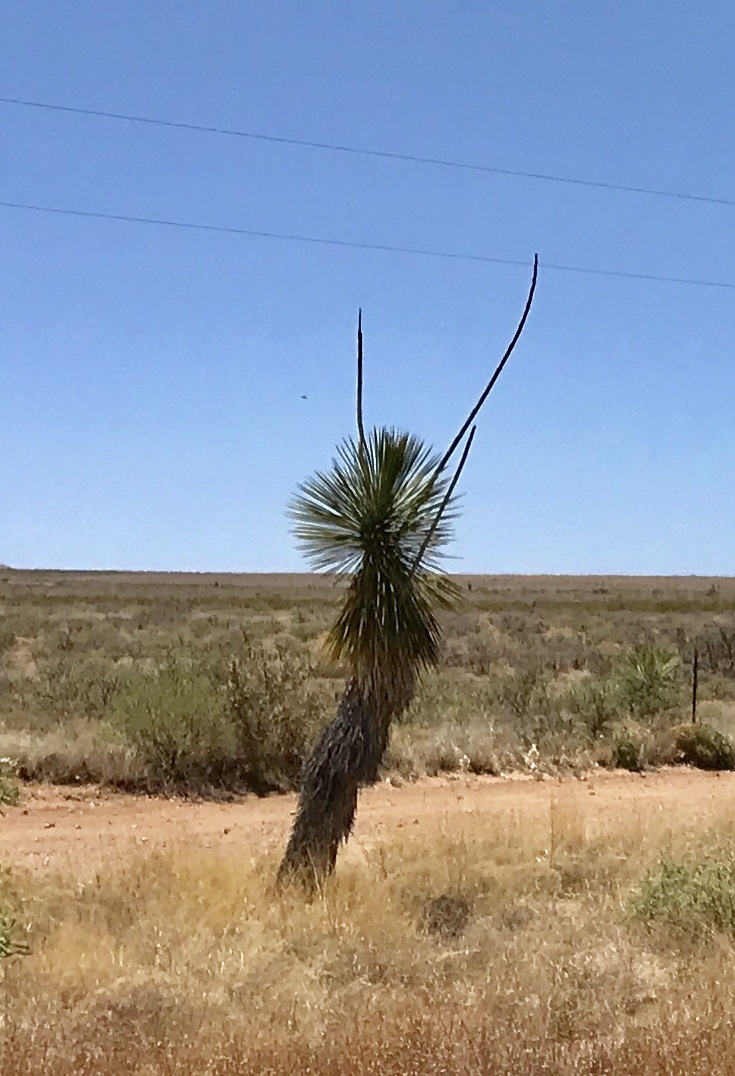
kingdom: Plantae
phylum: Tracheophyta
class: Liliopsida
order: Asparagales
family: Asparagaceae
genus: Yucca
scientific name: Yucca elata
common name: Palmella
